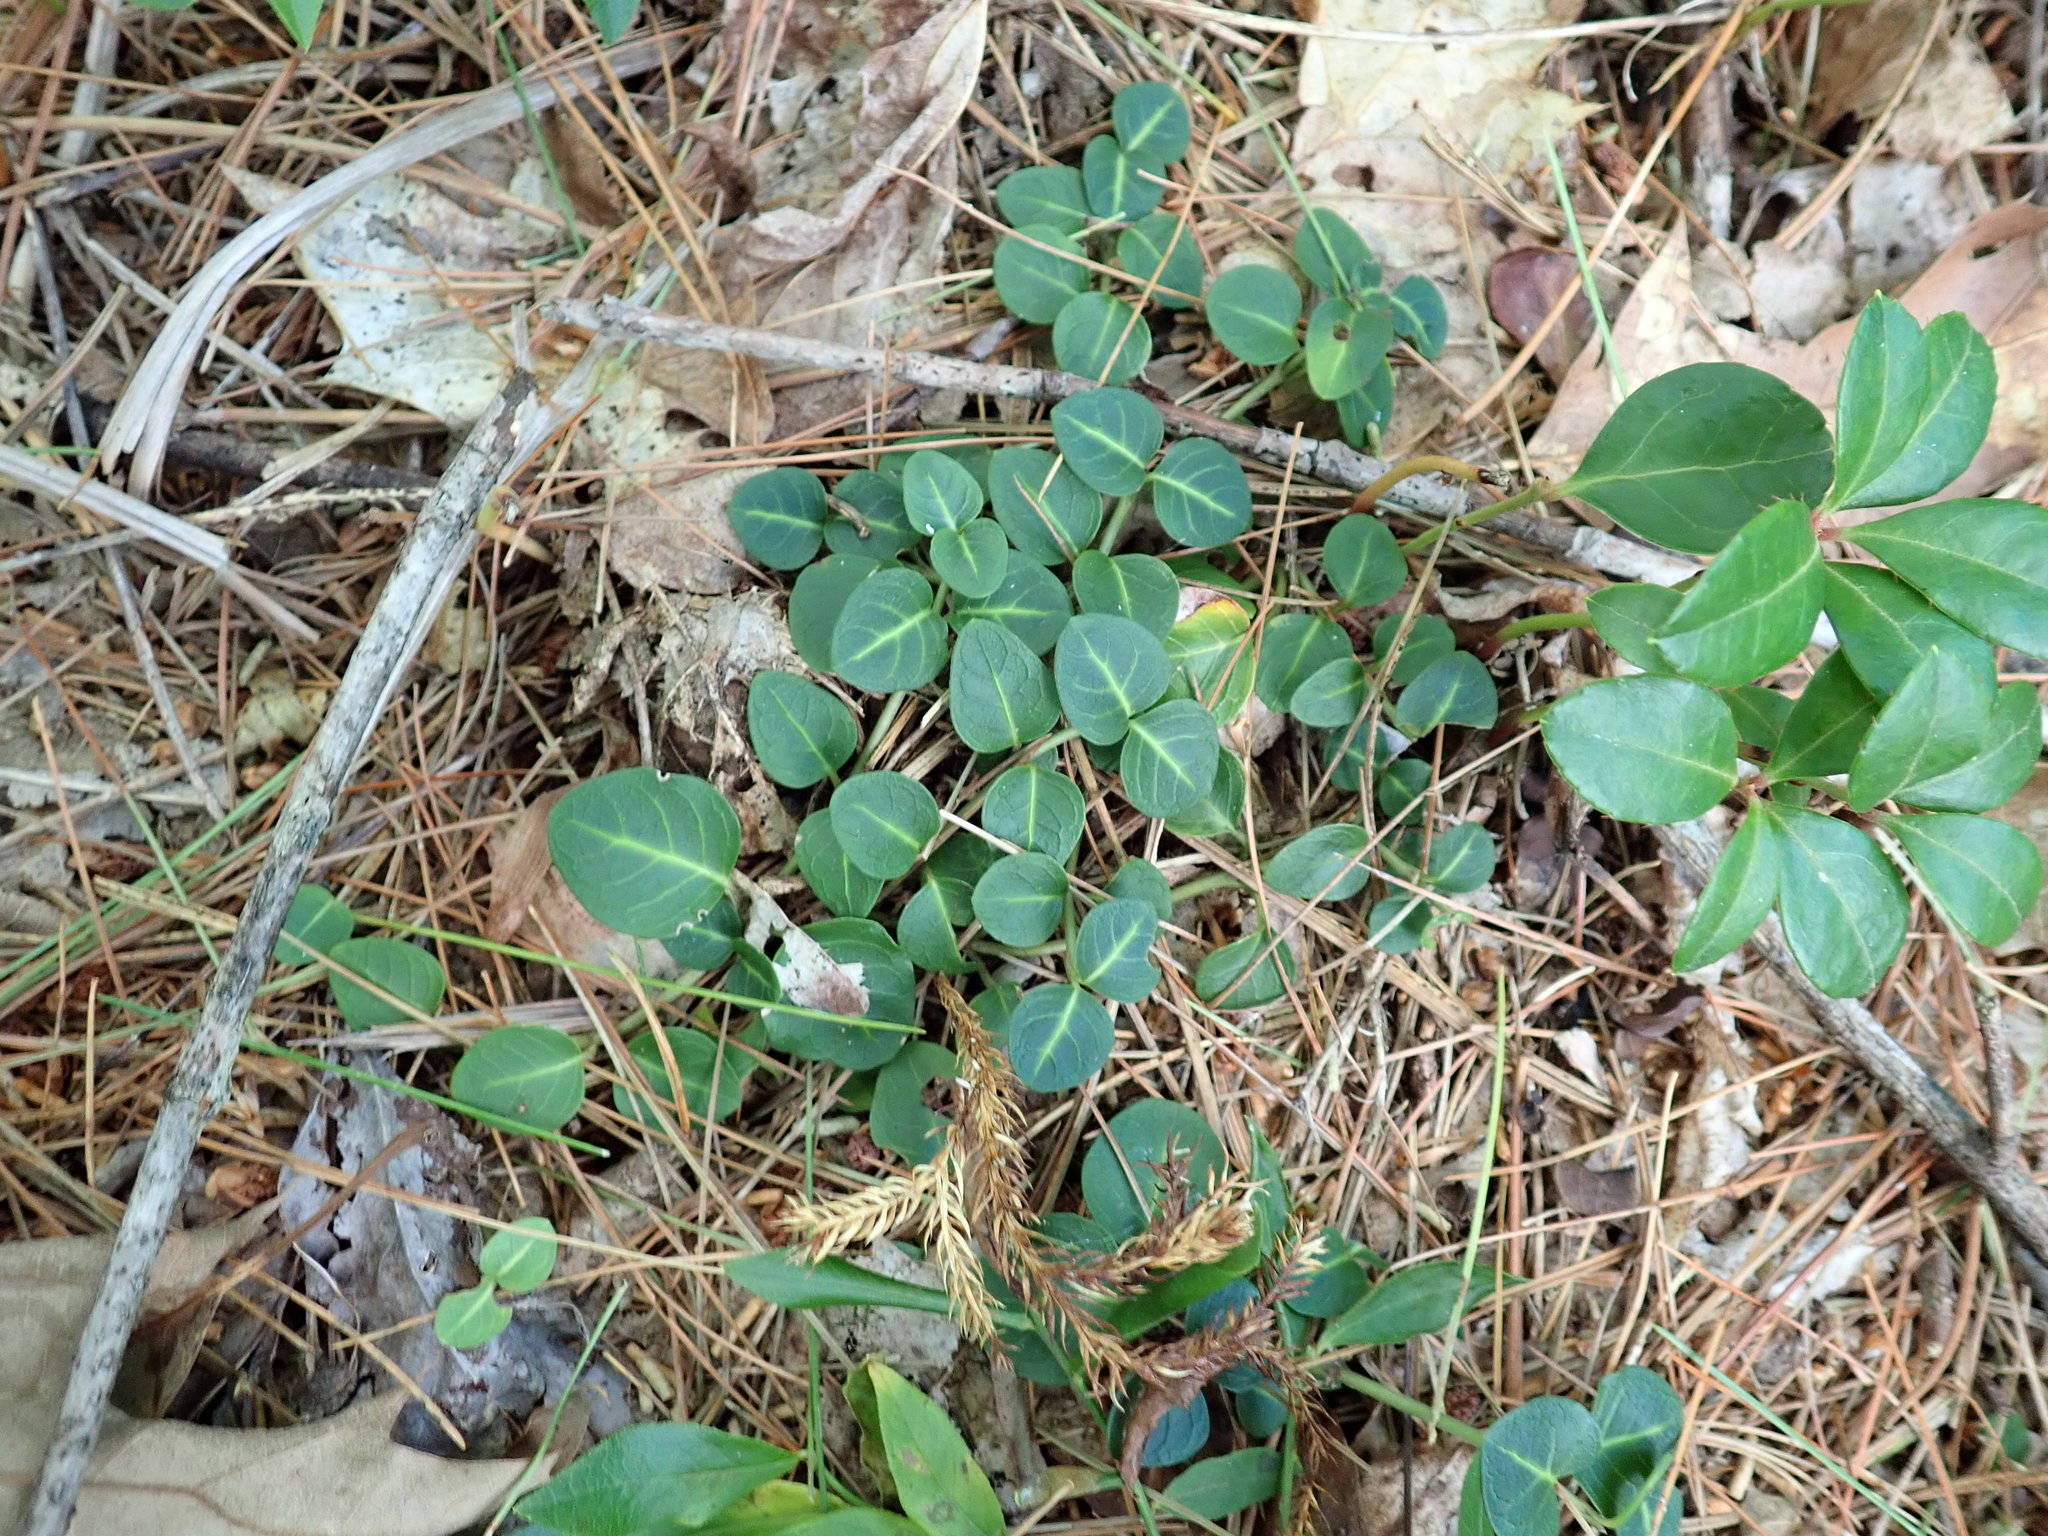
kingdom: Plantae
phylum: Tracheophyta
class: Magnoliopsida
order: Gentianales
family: Rubiaceae
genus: Mitchella
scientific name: Mitchella repens
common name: Partridge-berry
